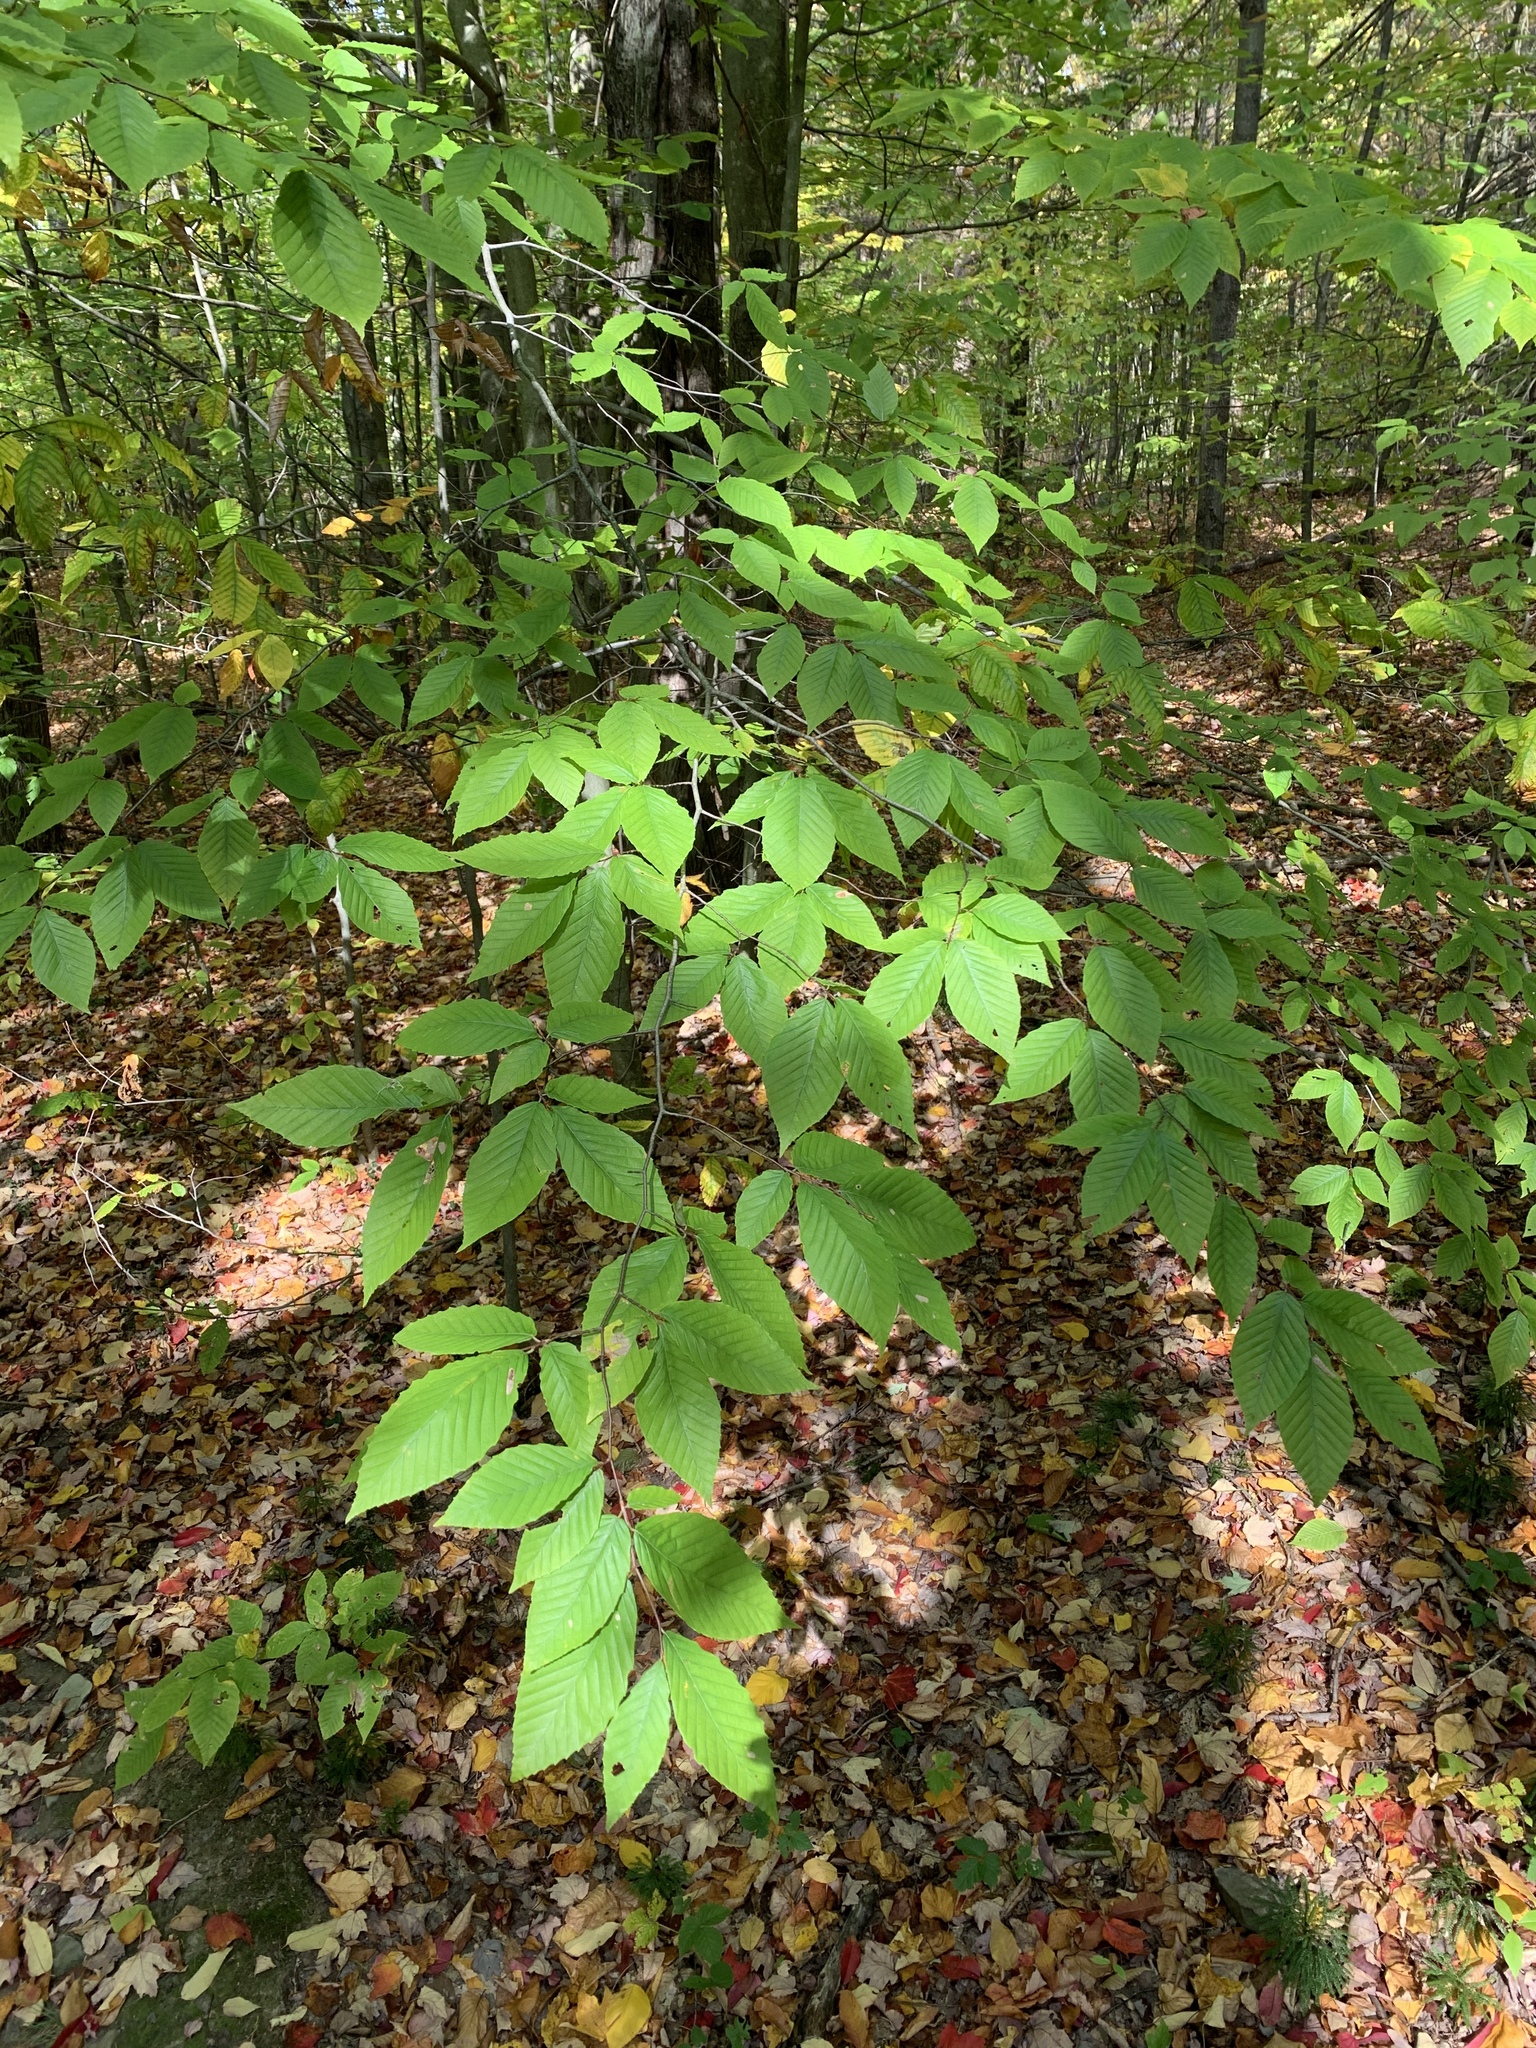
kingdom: Plantae
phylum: Tracheophyta
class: Magnoliopsida
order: Fagales
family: Fagaceae
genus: Fagus
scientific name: Fagus grandifolia
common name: American beech
